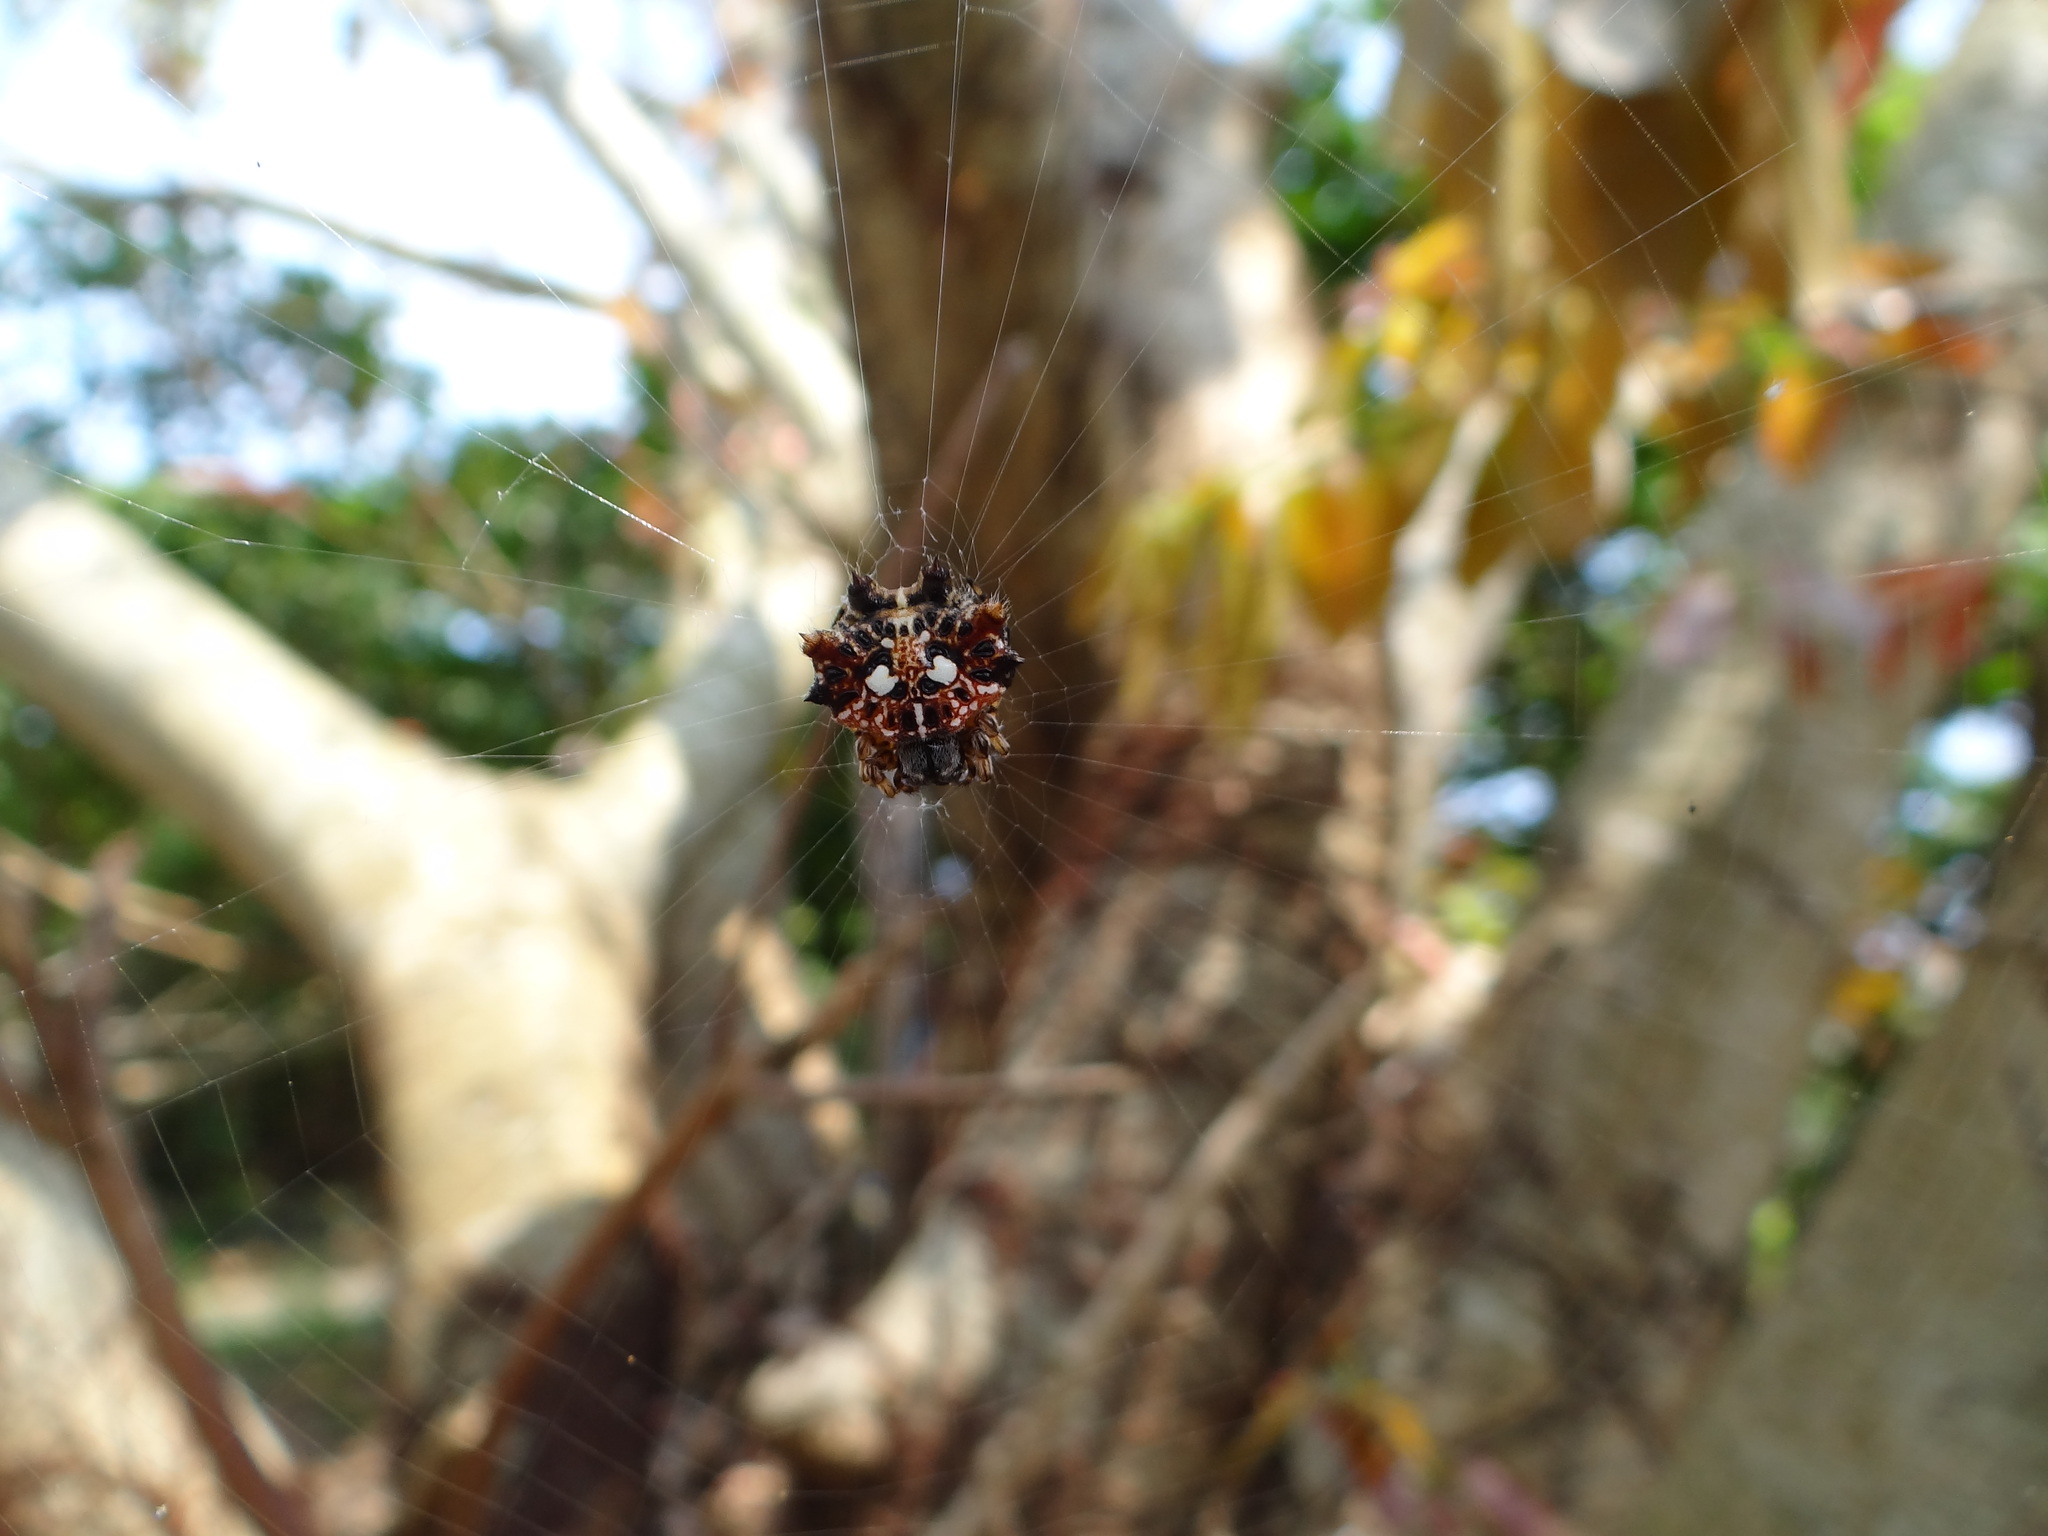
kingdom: Animalia
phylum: Arthropoda
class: Arachnida
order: Araneae
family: Araneidae
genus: Thelacantha
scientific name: Thelacantha brevispina
